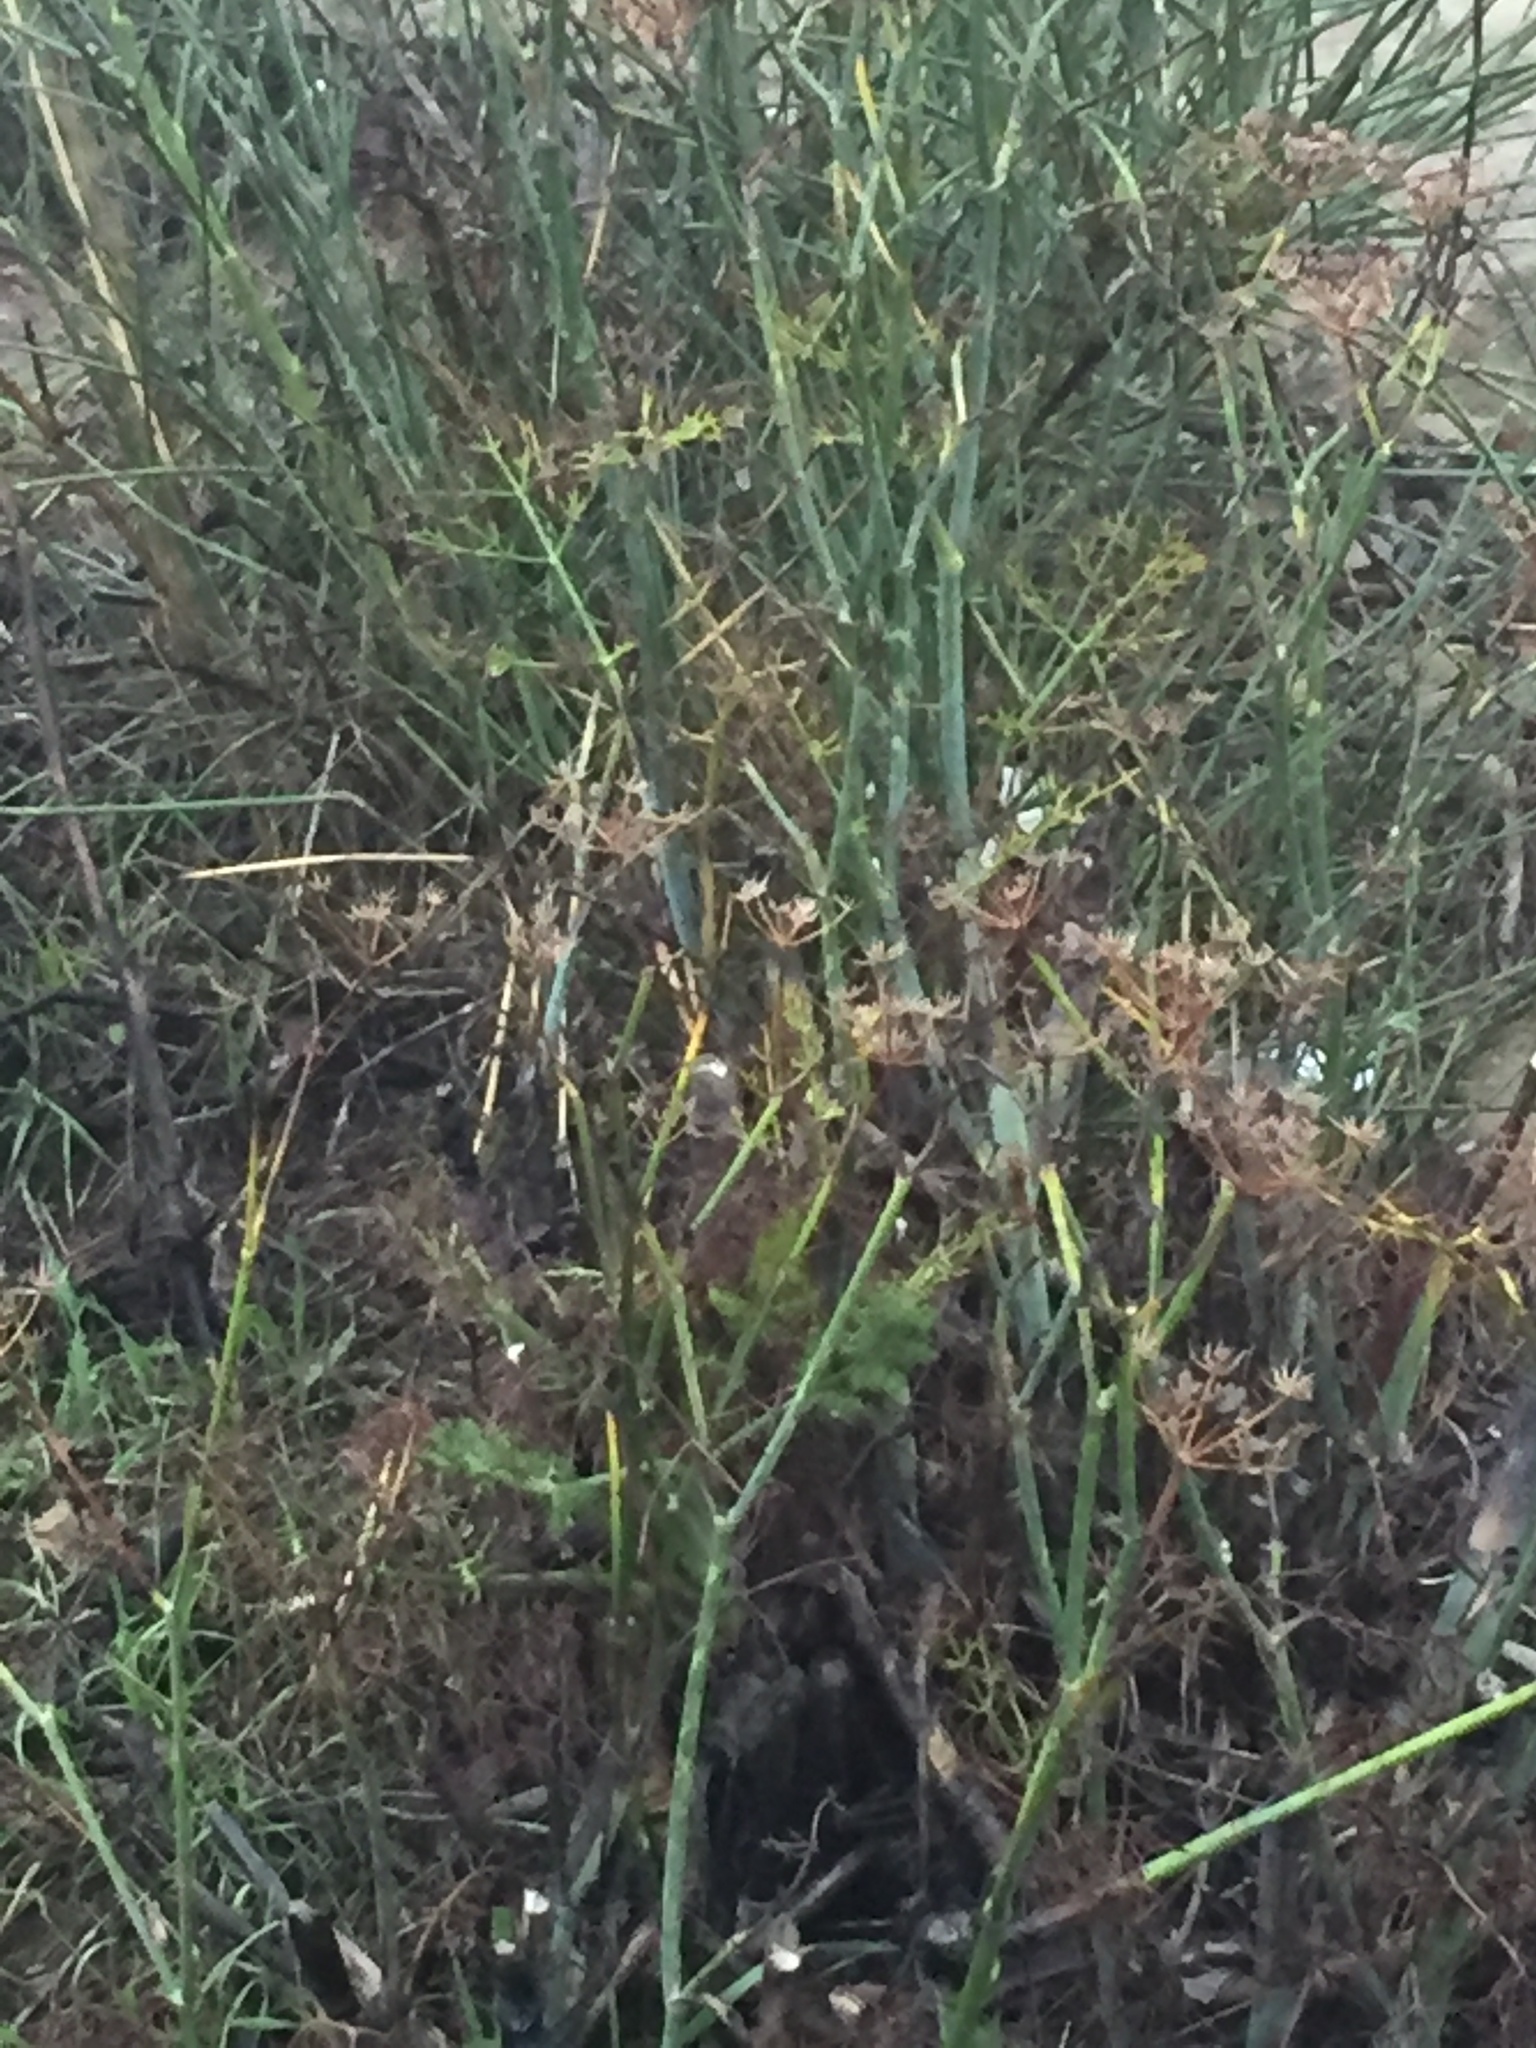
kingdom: Plantae
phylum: Tracheophyta
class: Magnoliopsida
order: Apiales
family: Apiaceae
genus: Foeniculum
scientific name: Foeniculum vulgare
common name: Fennel
